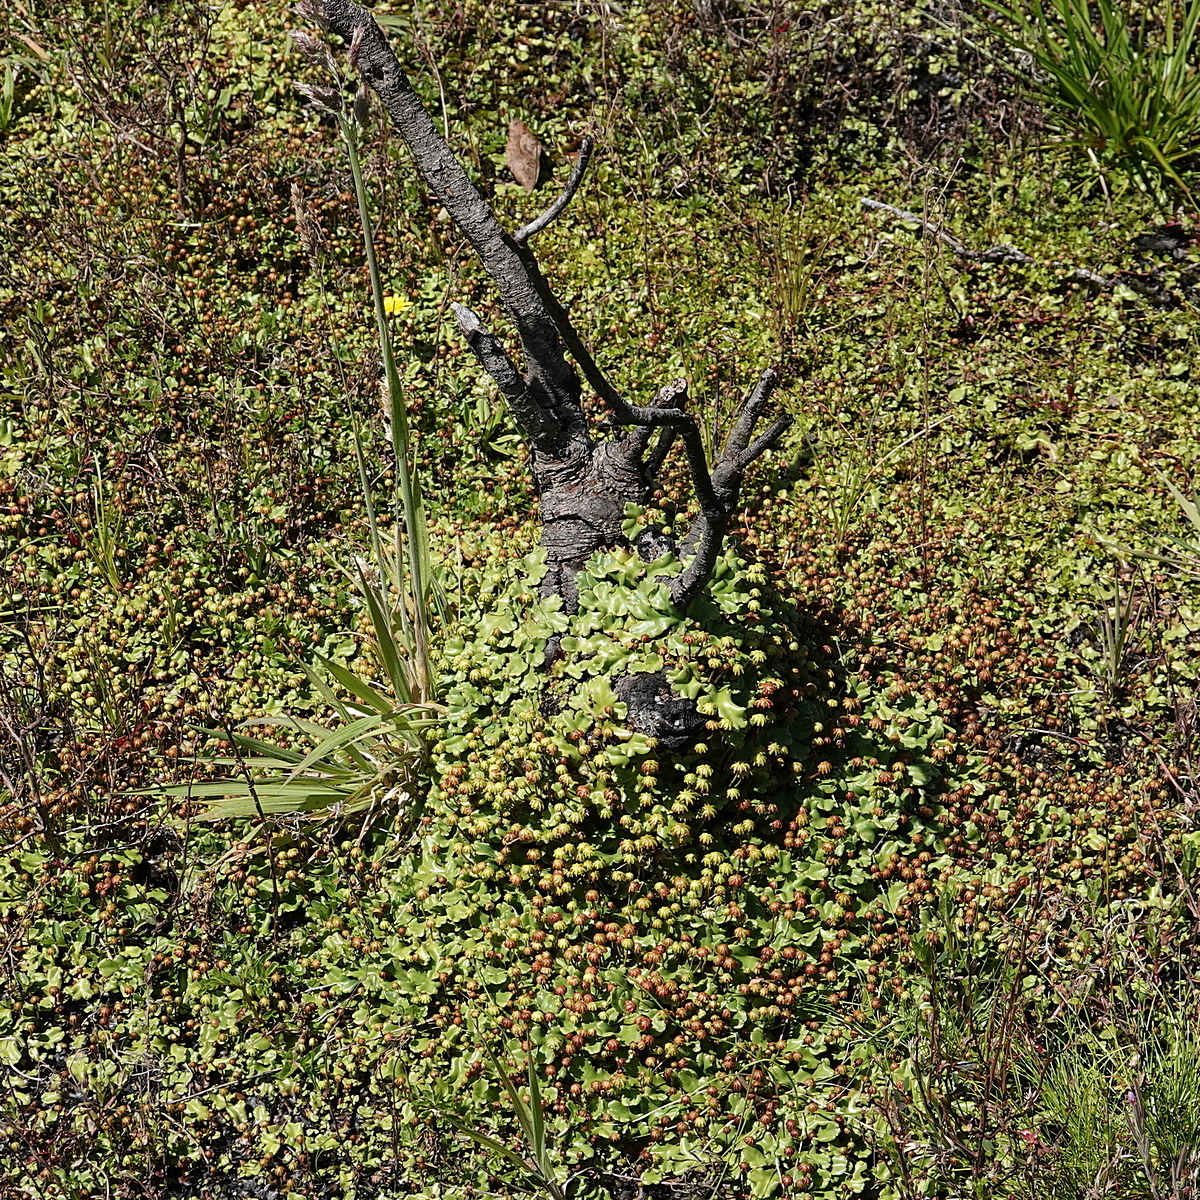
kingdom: Plantae
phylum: Marchantiophyta
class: Marchantiopsida
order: Marchantiales
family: Marchantiaceae
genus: Marchantia
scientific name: Marchantia berteroana
